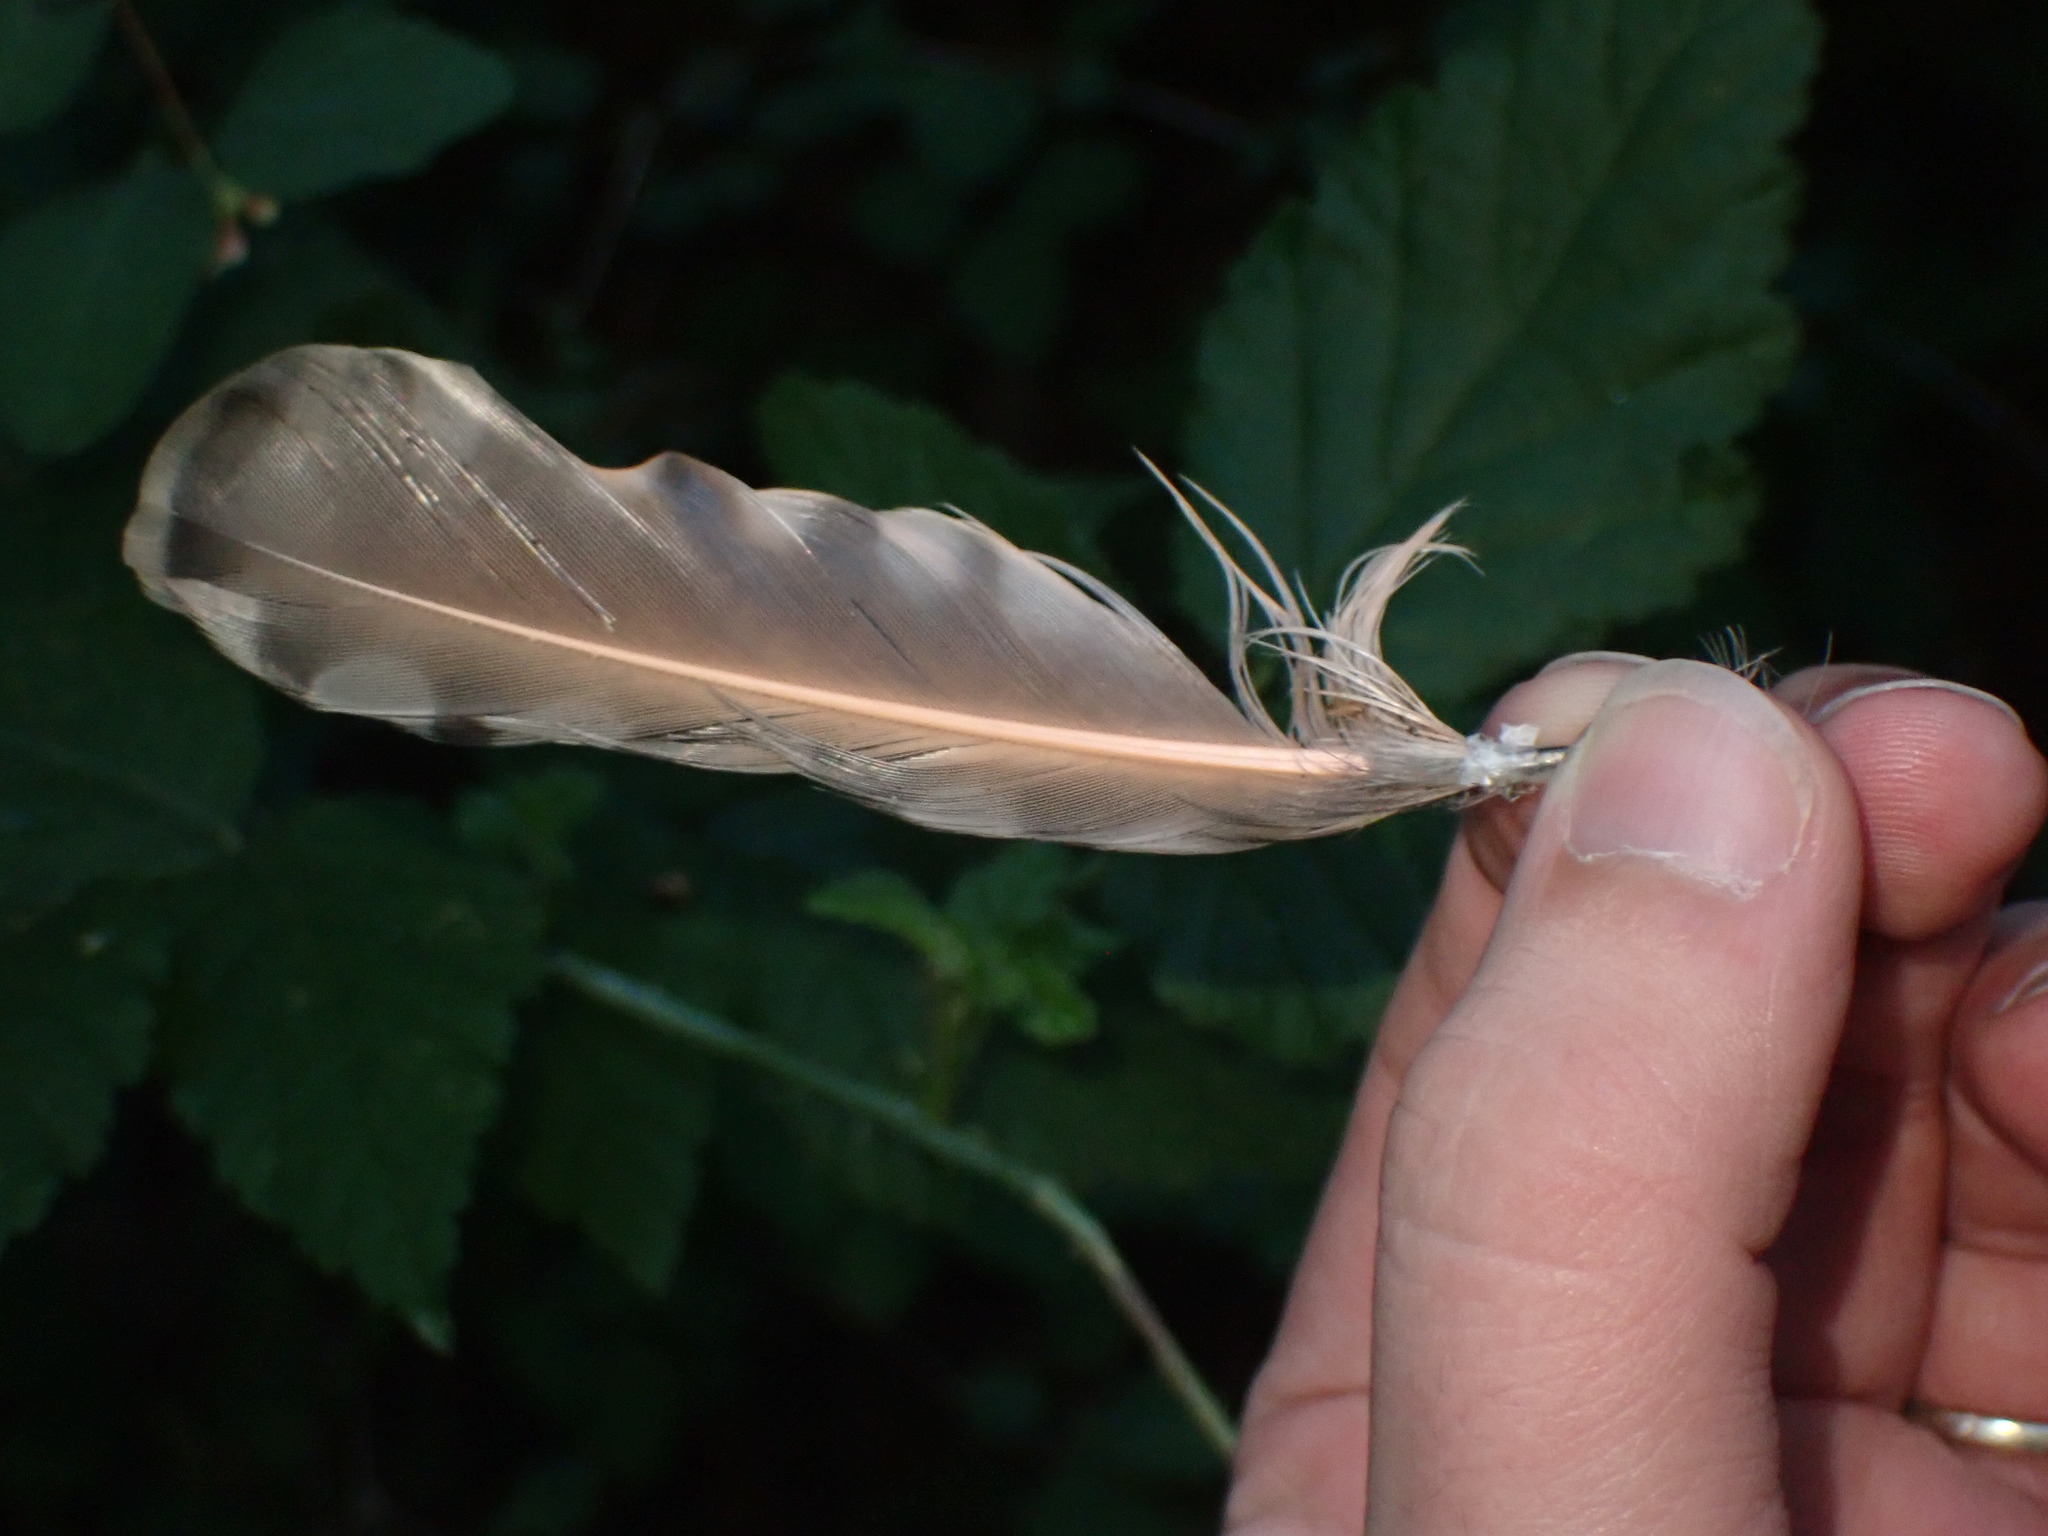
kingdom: Animalia
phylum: Chordata
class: Aves
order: Piciformes
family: Picidae
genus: Colaptes
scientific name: Colaptes auratus
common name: Northern flicker
